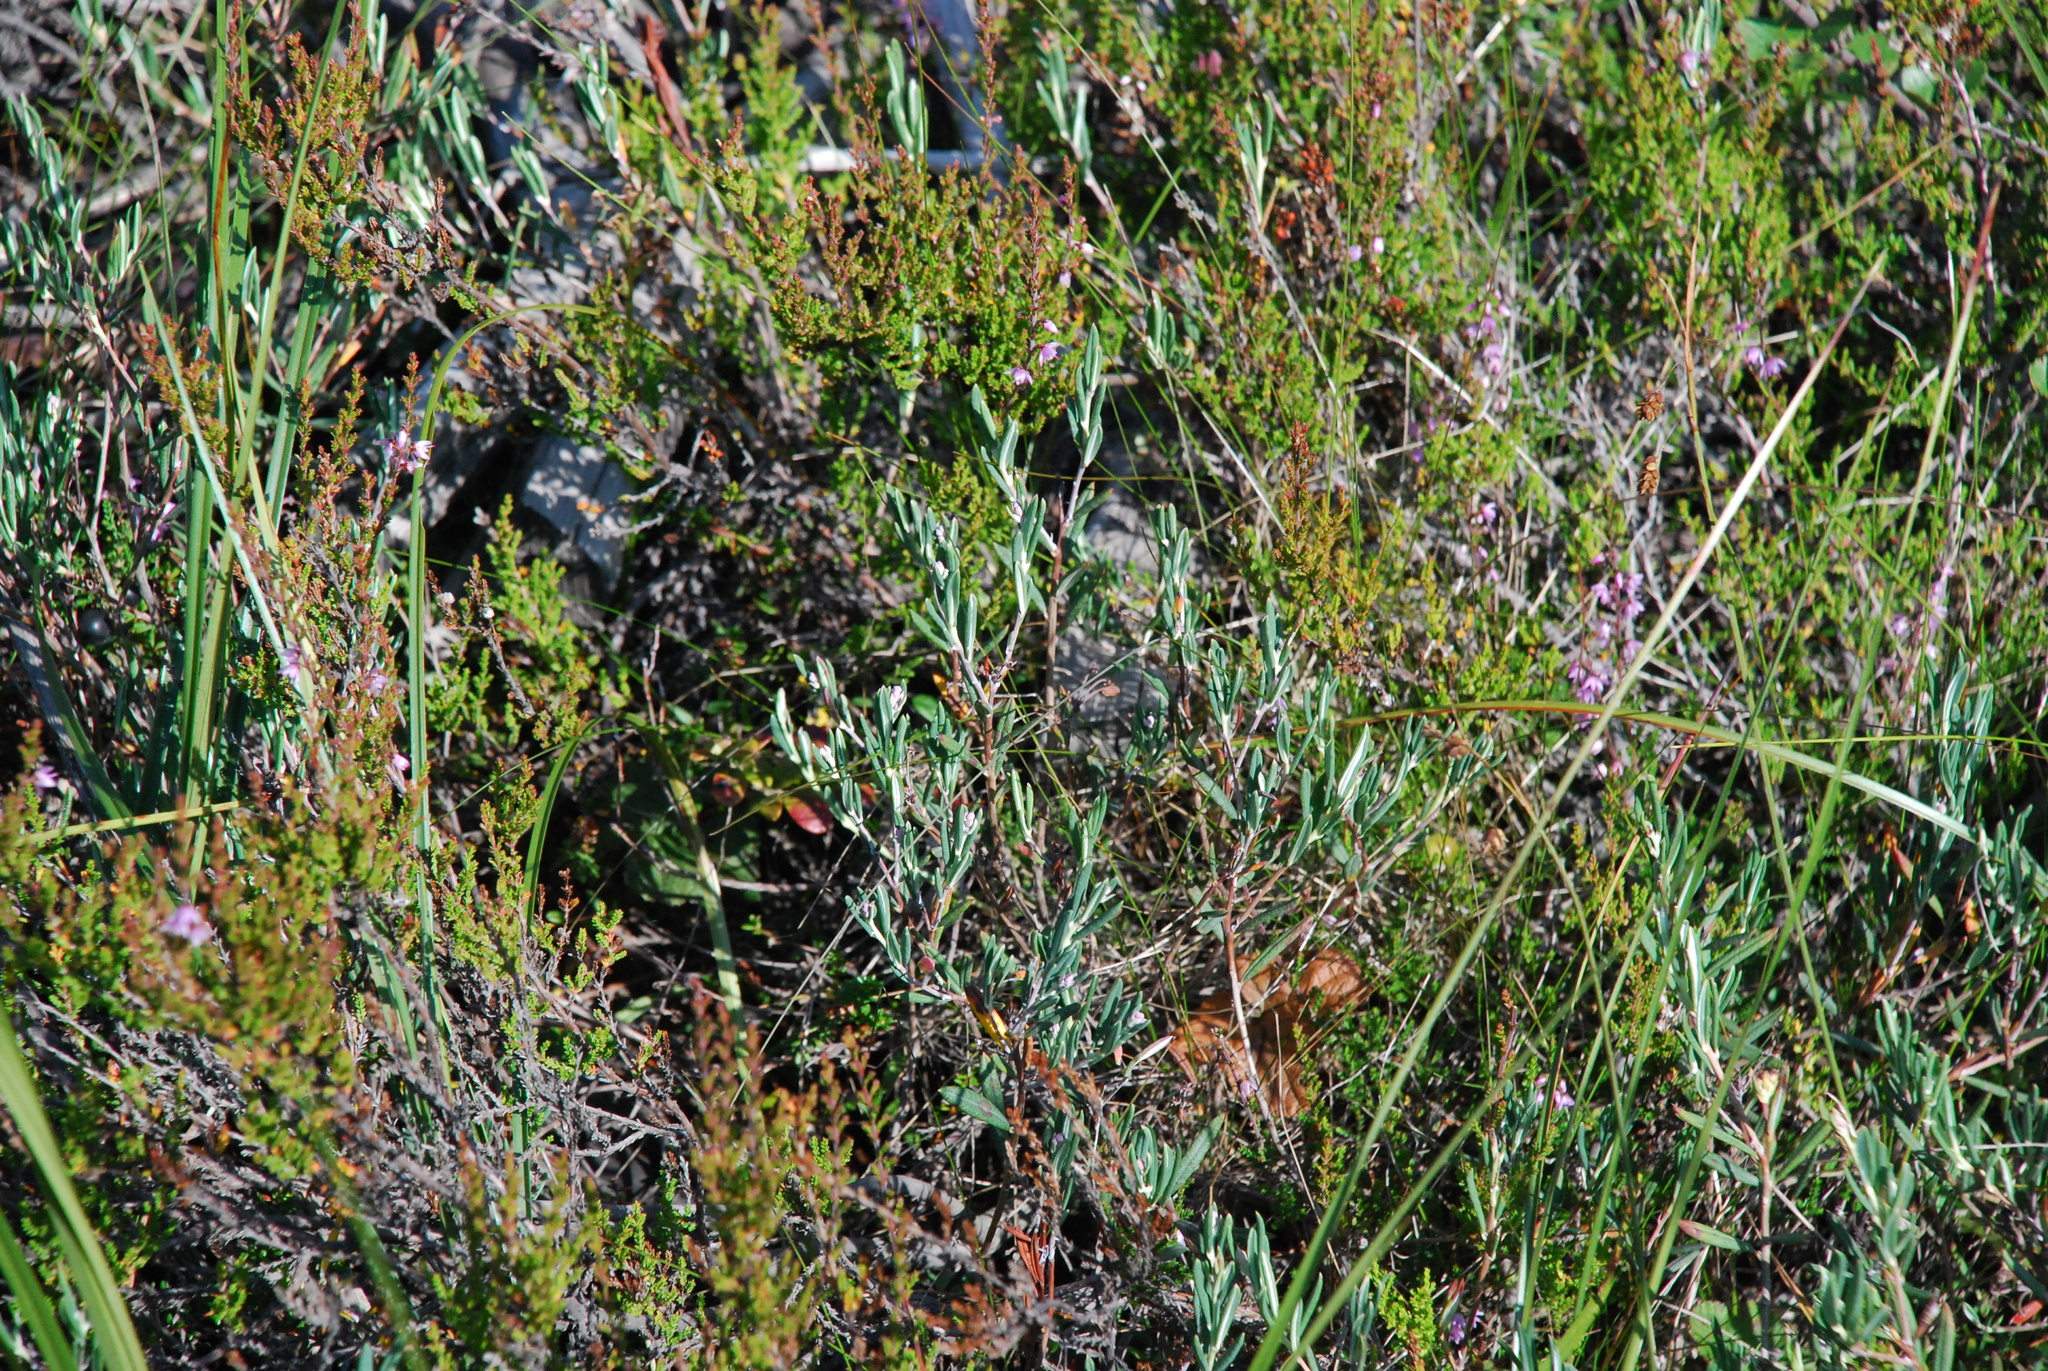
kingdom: Plantae
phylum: Tracheophyta
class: Magnoliopsida
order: Ericales
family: Ericaceae
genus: Andromeda
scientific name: Andromeda polifolia
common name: Bog-rosemary
